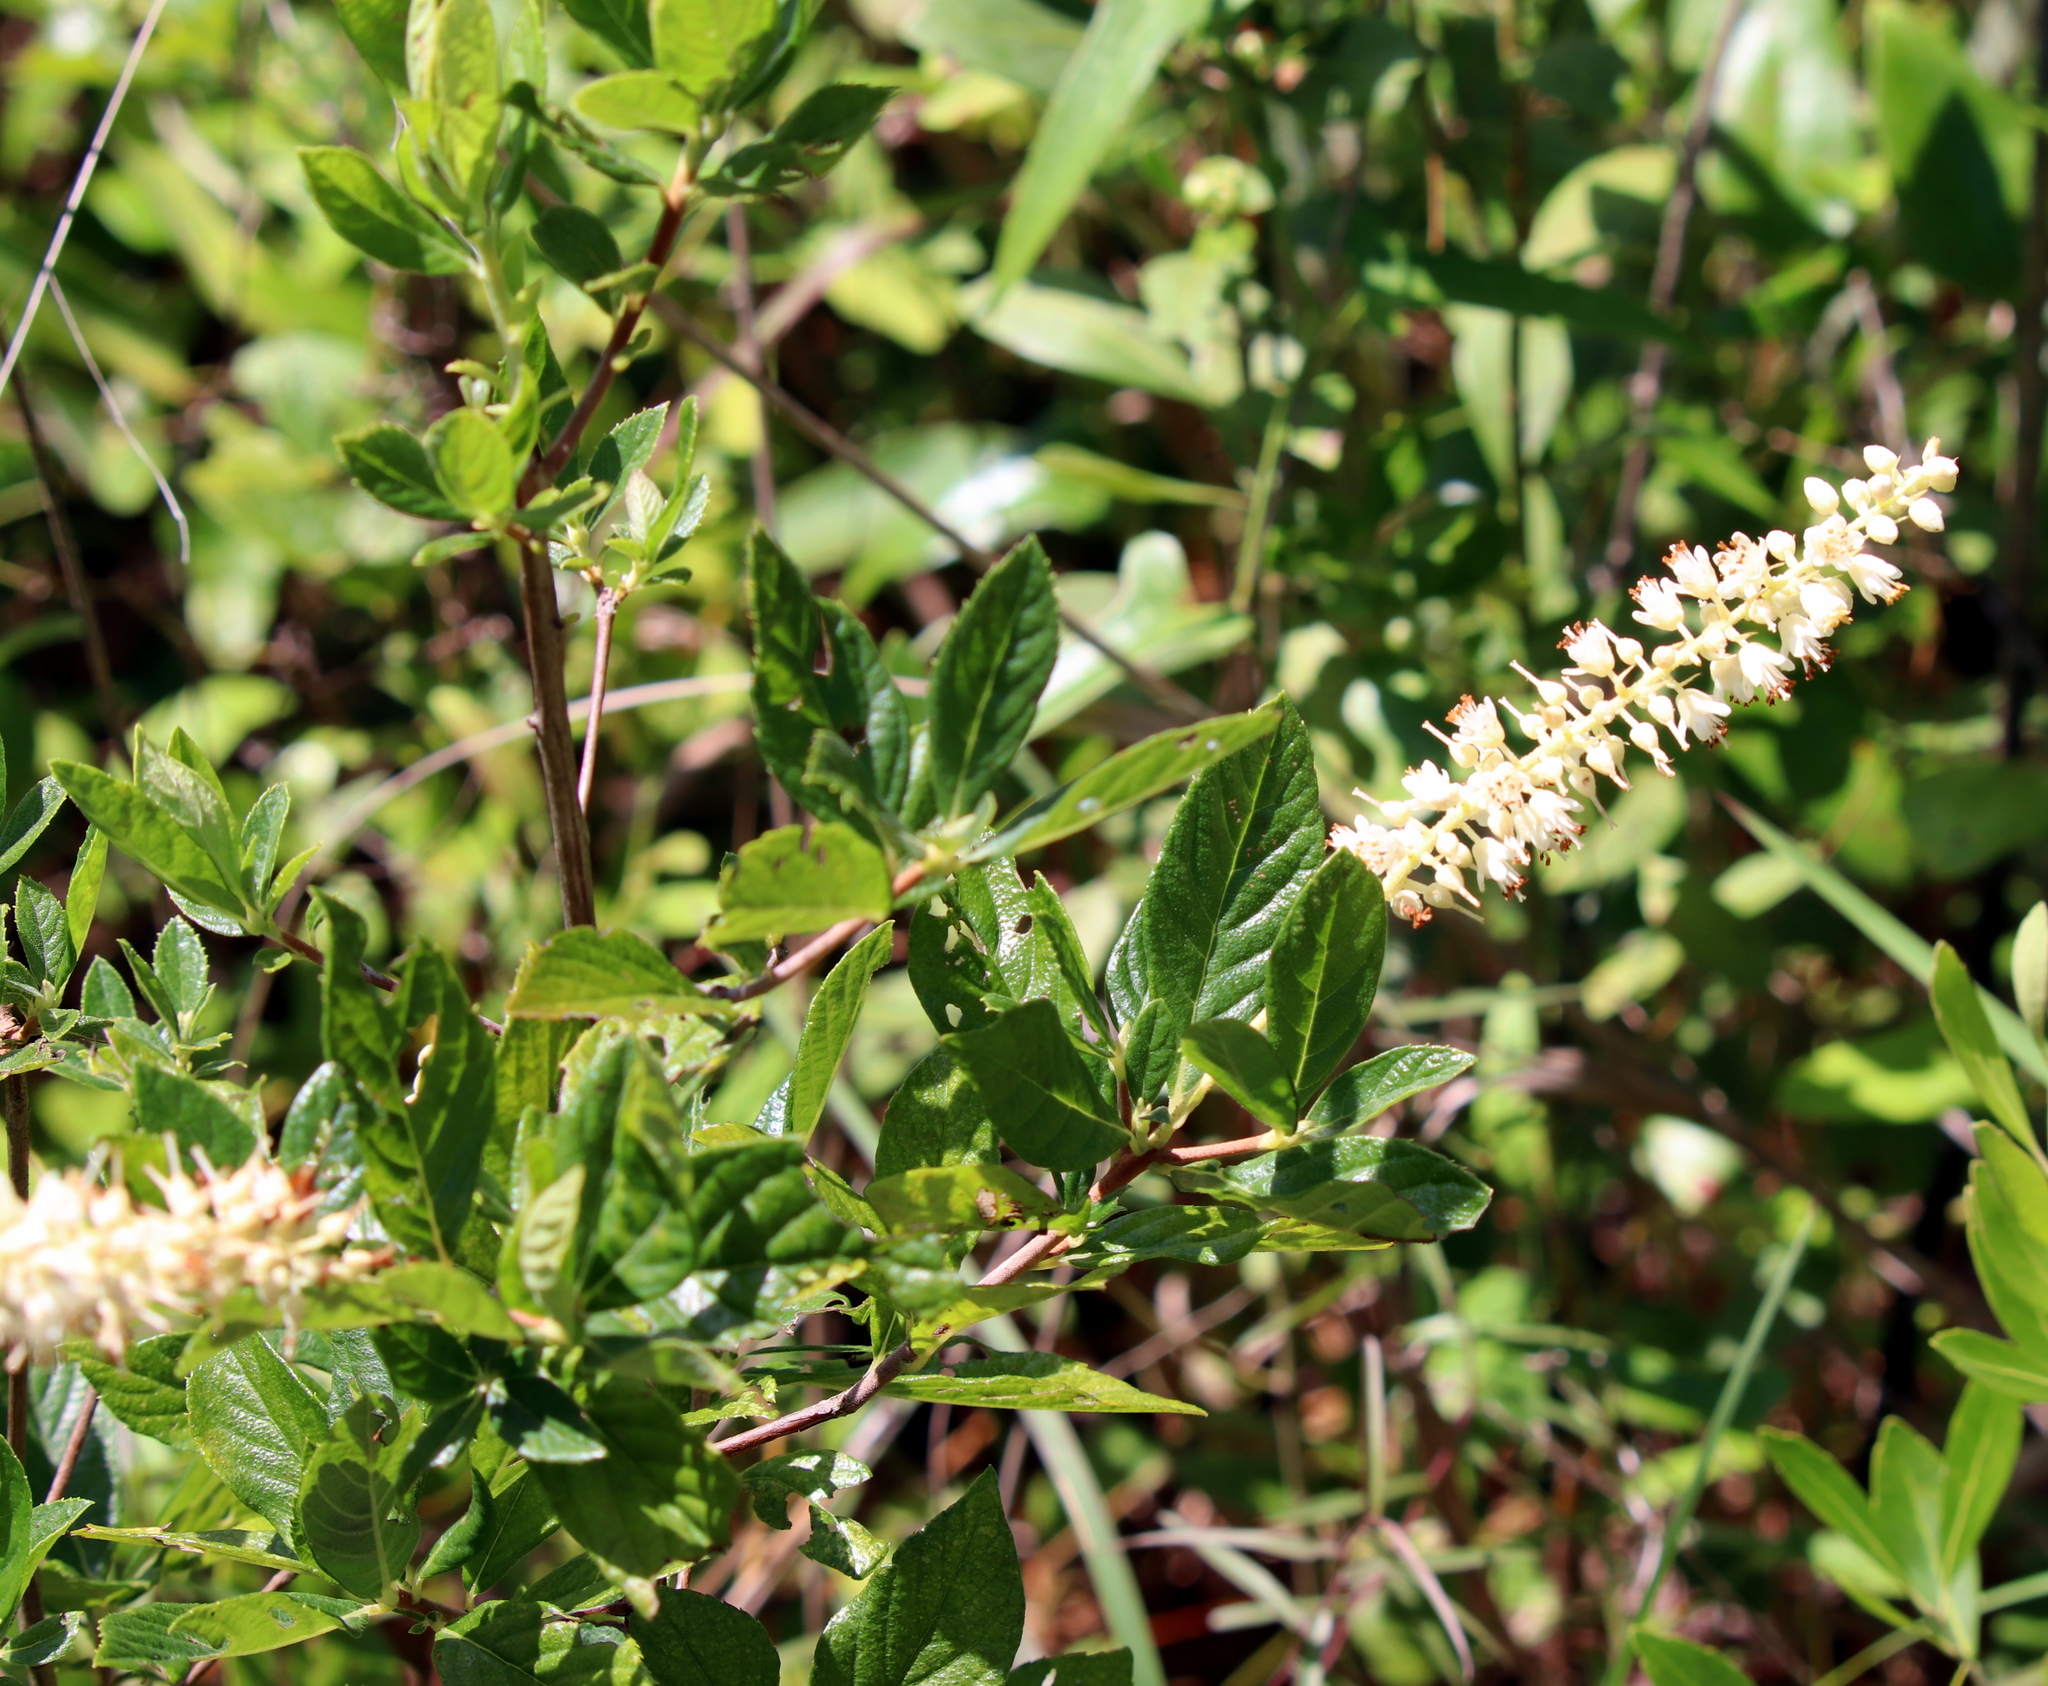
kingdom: Plantae
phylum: Tracheophyta
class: Magnoliopsida
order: Ericales
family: Clethraceae
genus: Clethra
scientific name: Clethra alnifolia
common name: Sweet pepperbush
